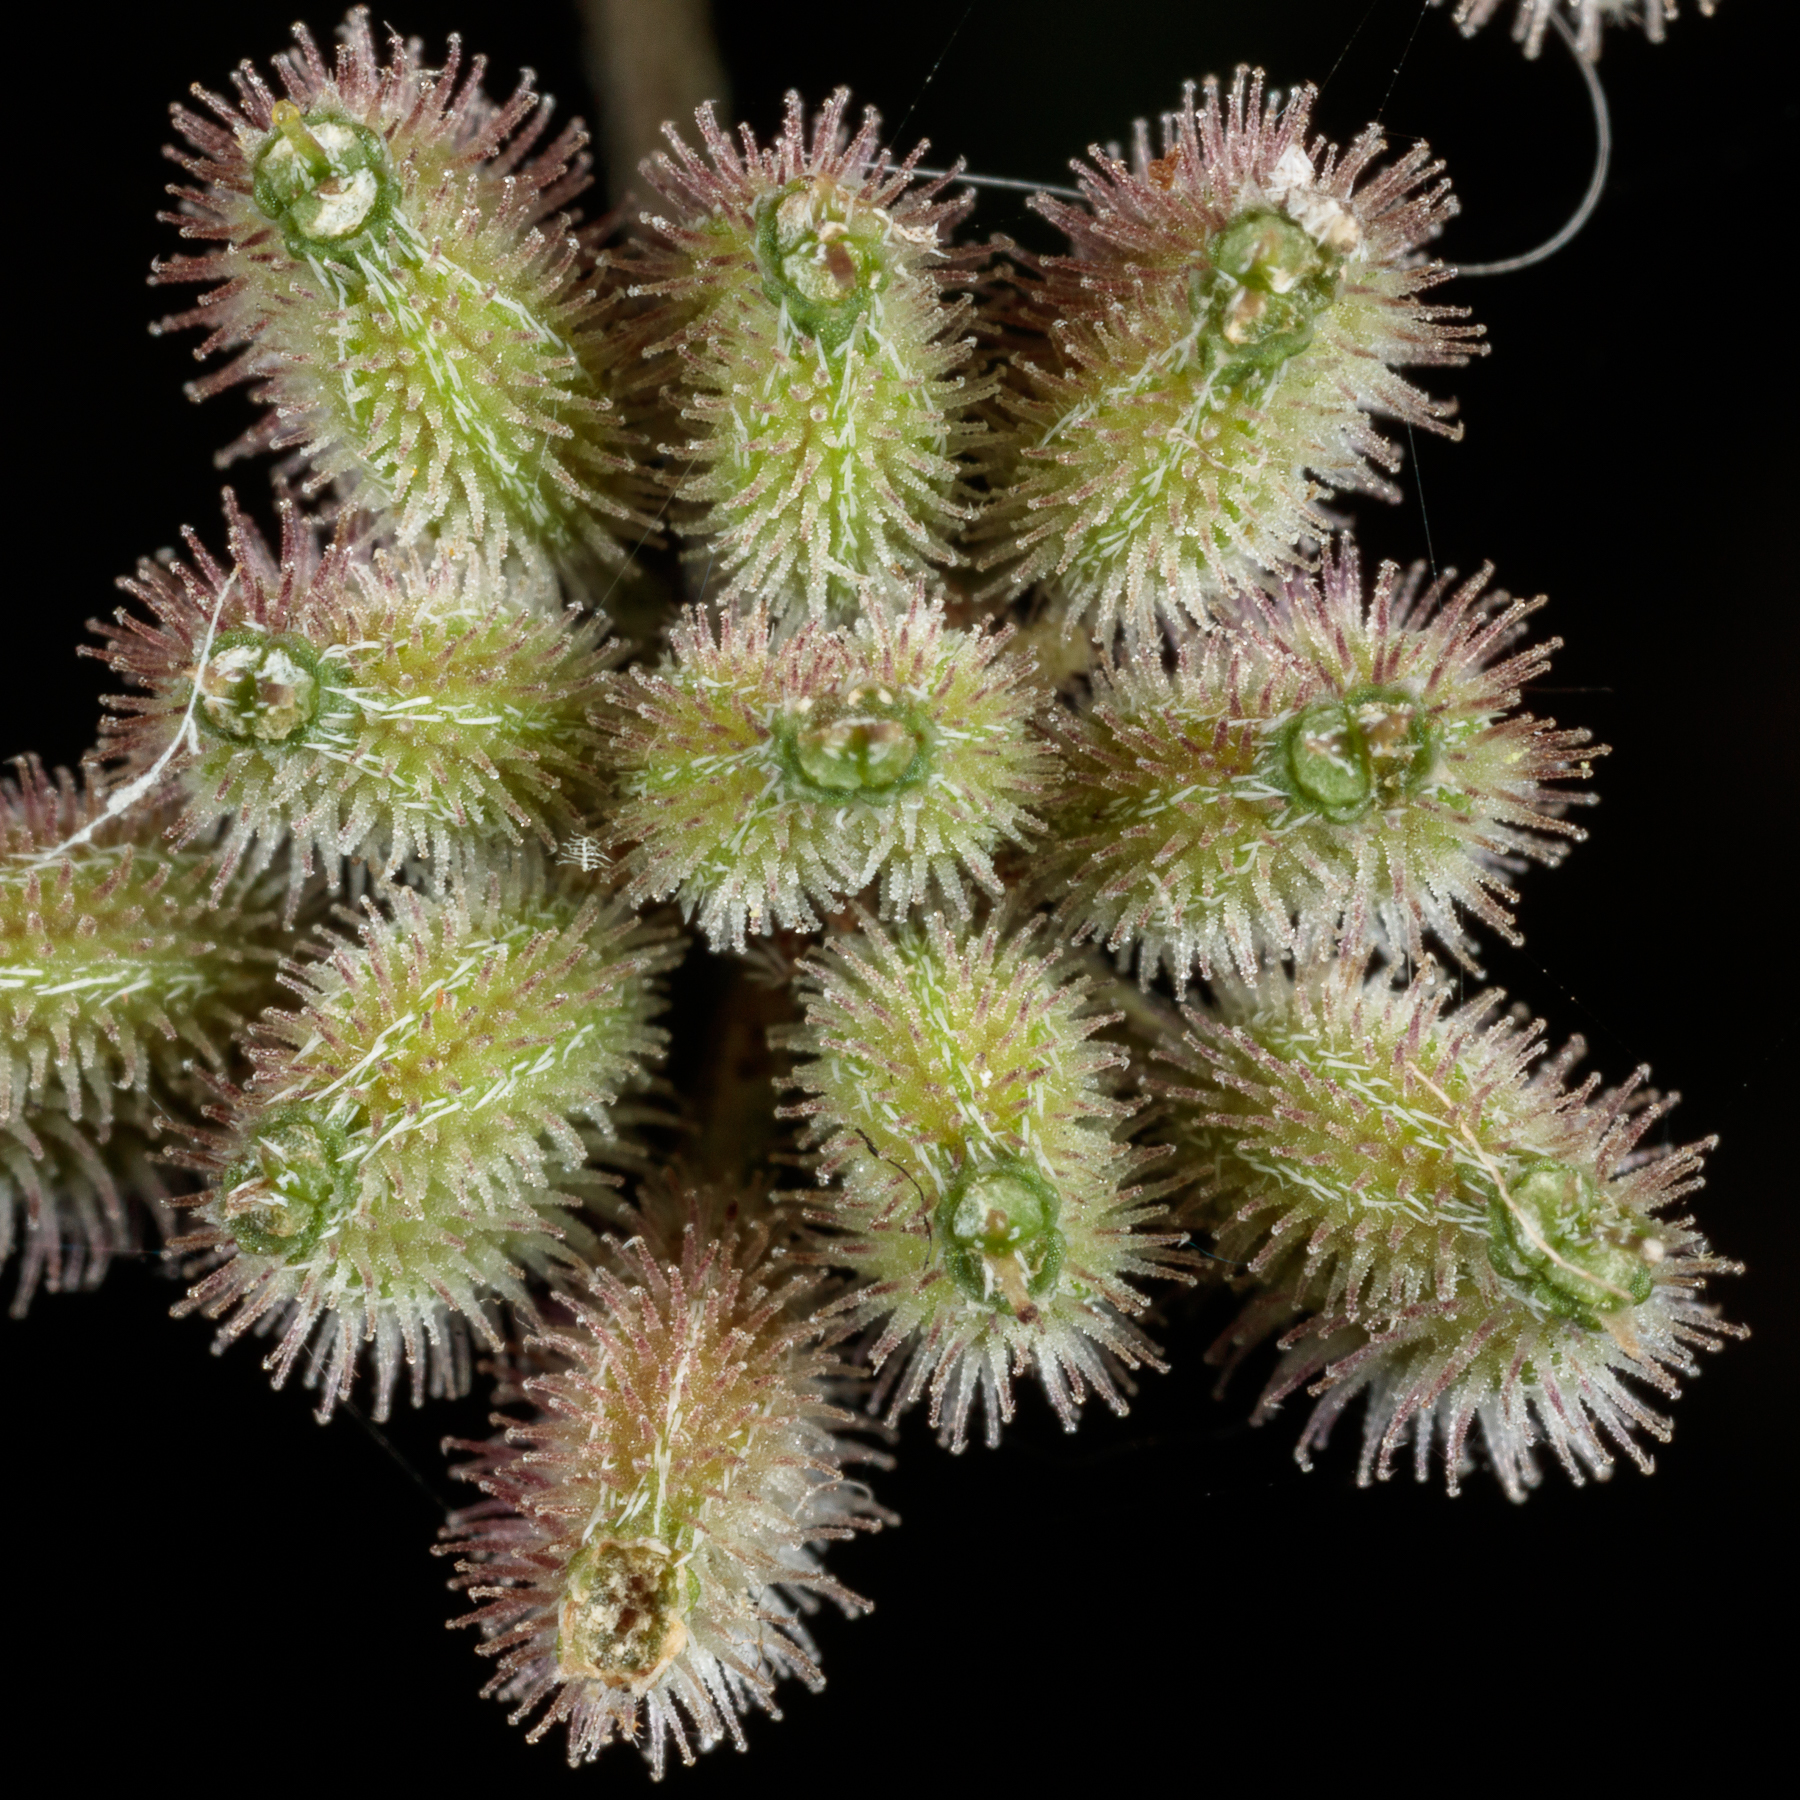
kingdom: Plantae
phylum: Tracheophyta
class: Magnoliopsida
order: Apiales
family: Apiaceae
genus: Torilis
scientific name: Torilis arvensis
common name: Spreading hedge-parsley
